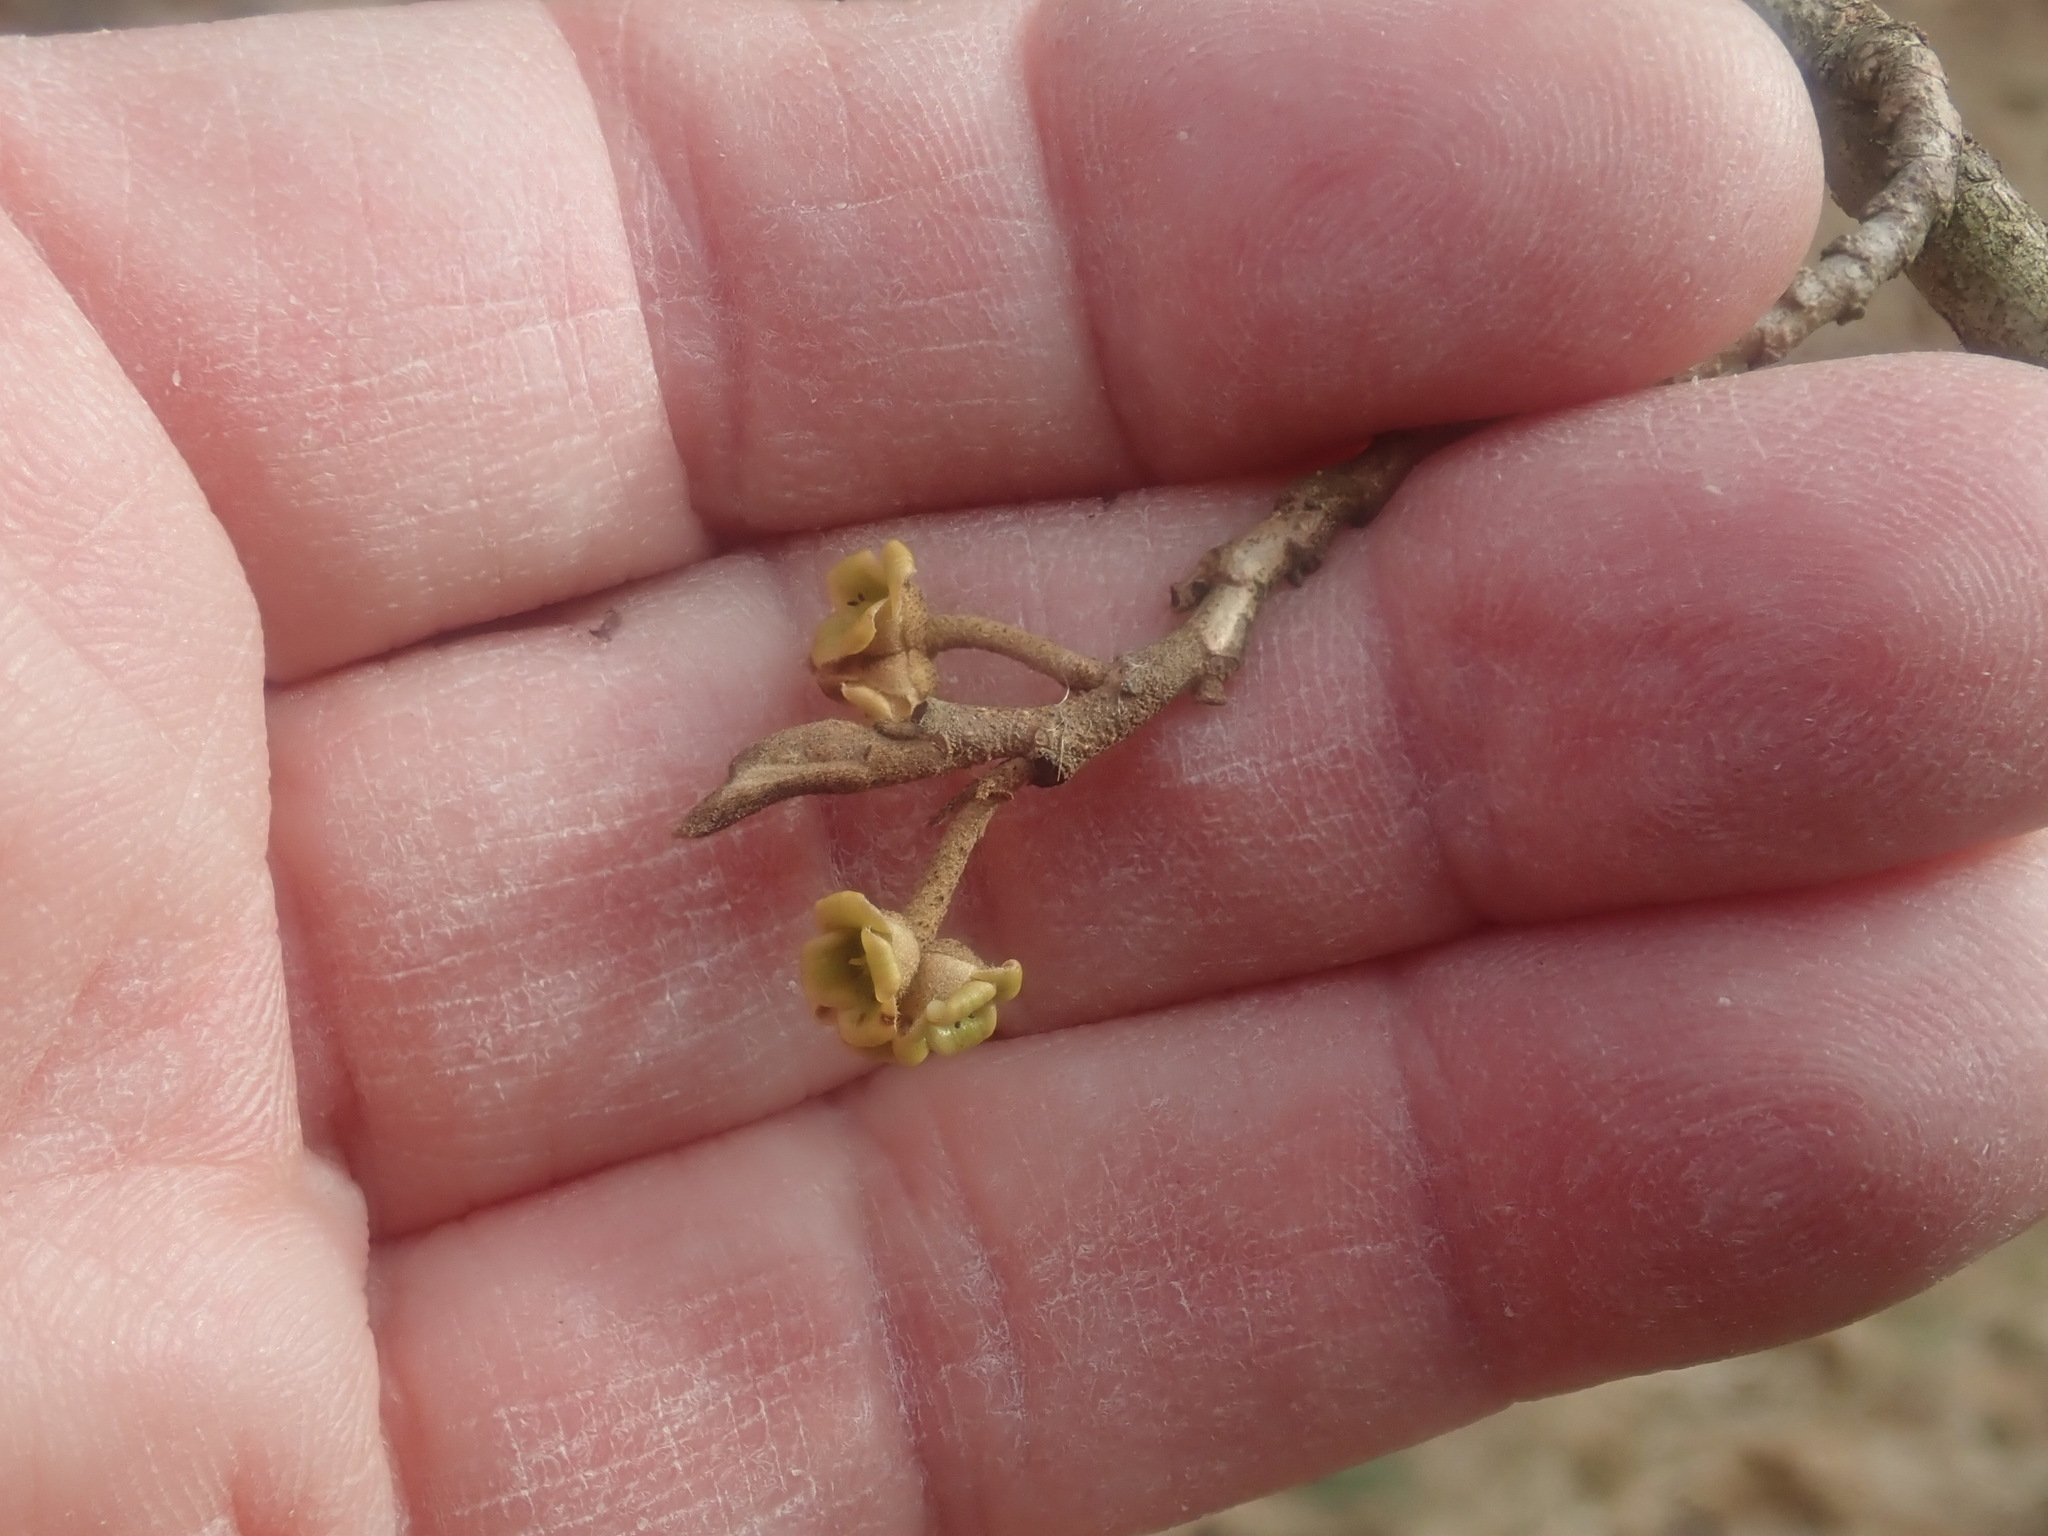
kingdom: Plantae
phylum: Tracheophyta
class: Magnoliopsida
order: Saxifragales
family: Hamamelidaceae
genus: Hamamelis
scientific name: Hamamelis virginiana
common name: Witch-hazel
